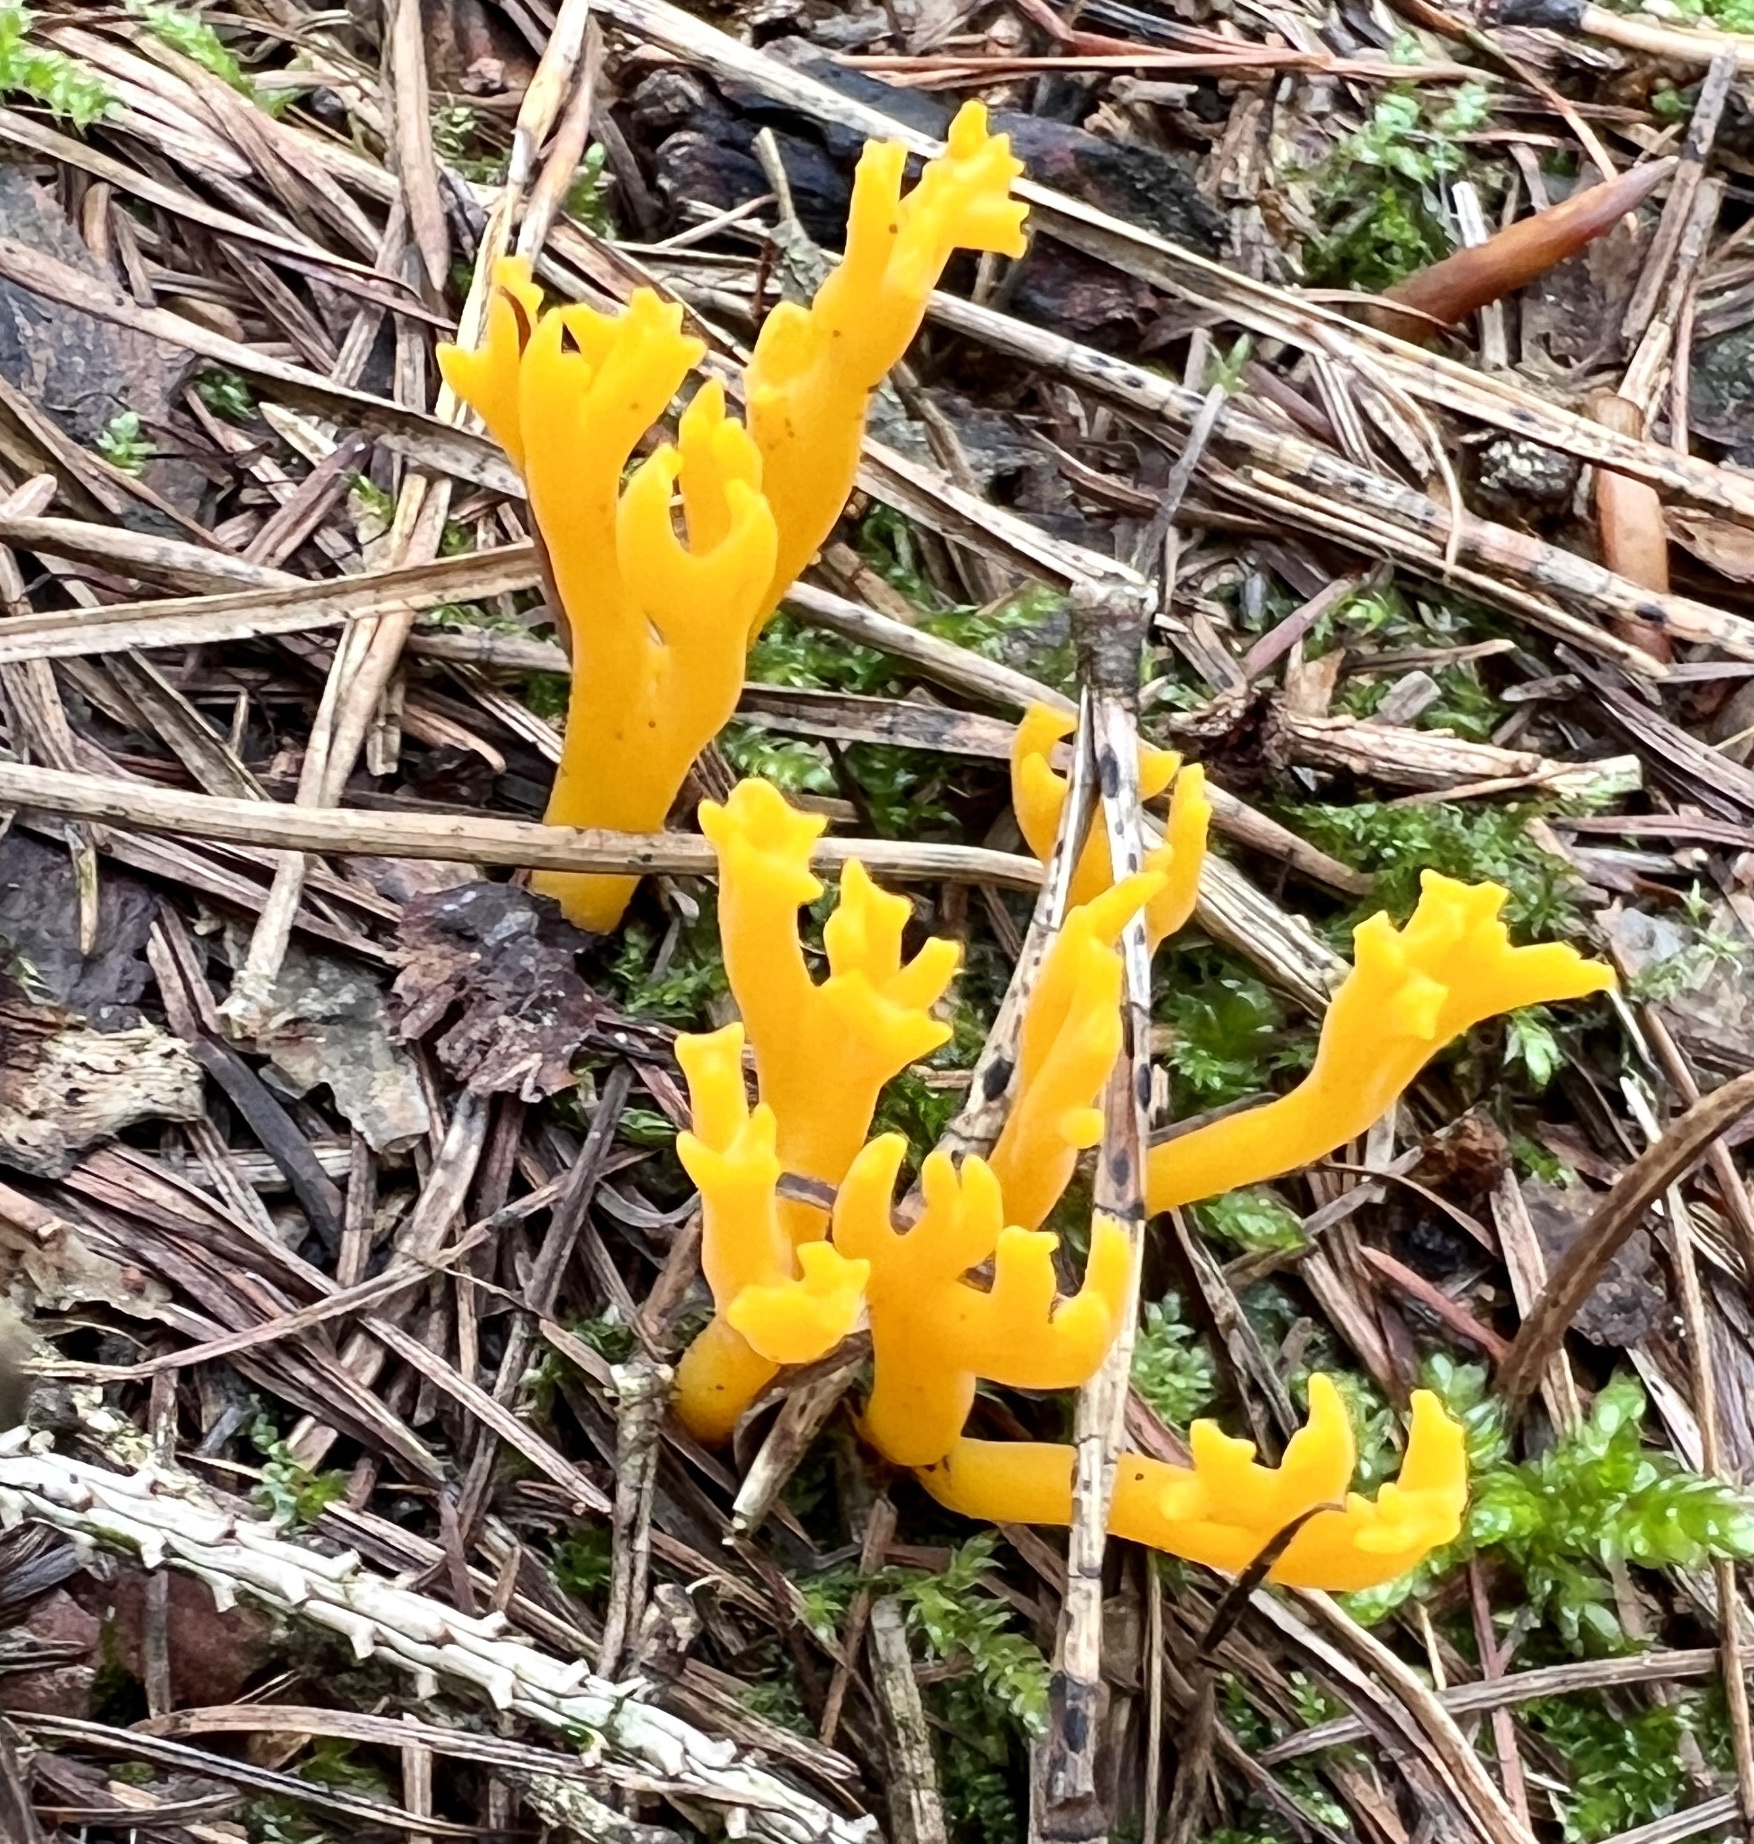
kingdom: Fungi
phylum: Basidiomycota
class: Dacrymycetes
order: Dacrymycetales
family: Dacrymycetaceae
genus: Calocera
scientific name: Calocera viscosa
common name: Yellow stagshorn
